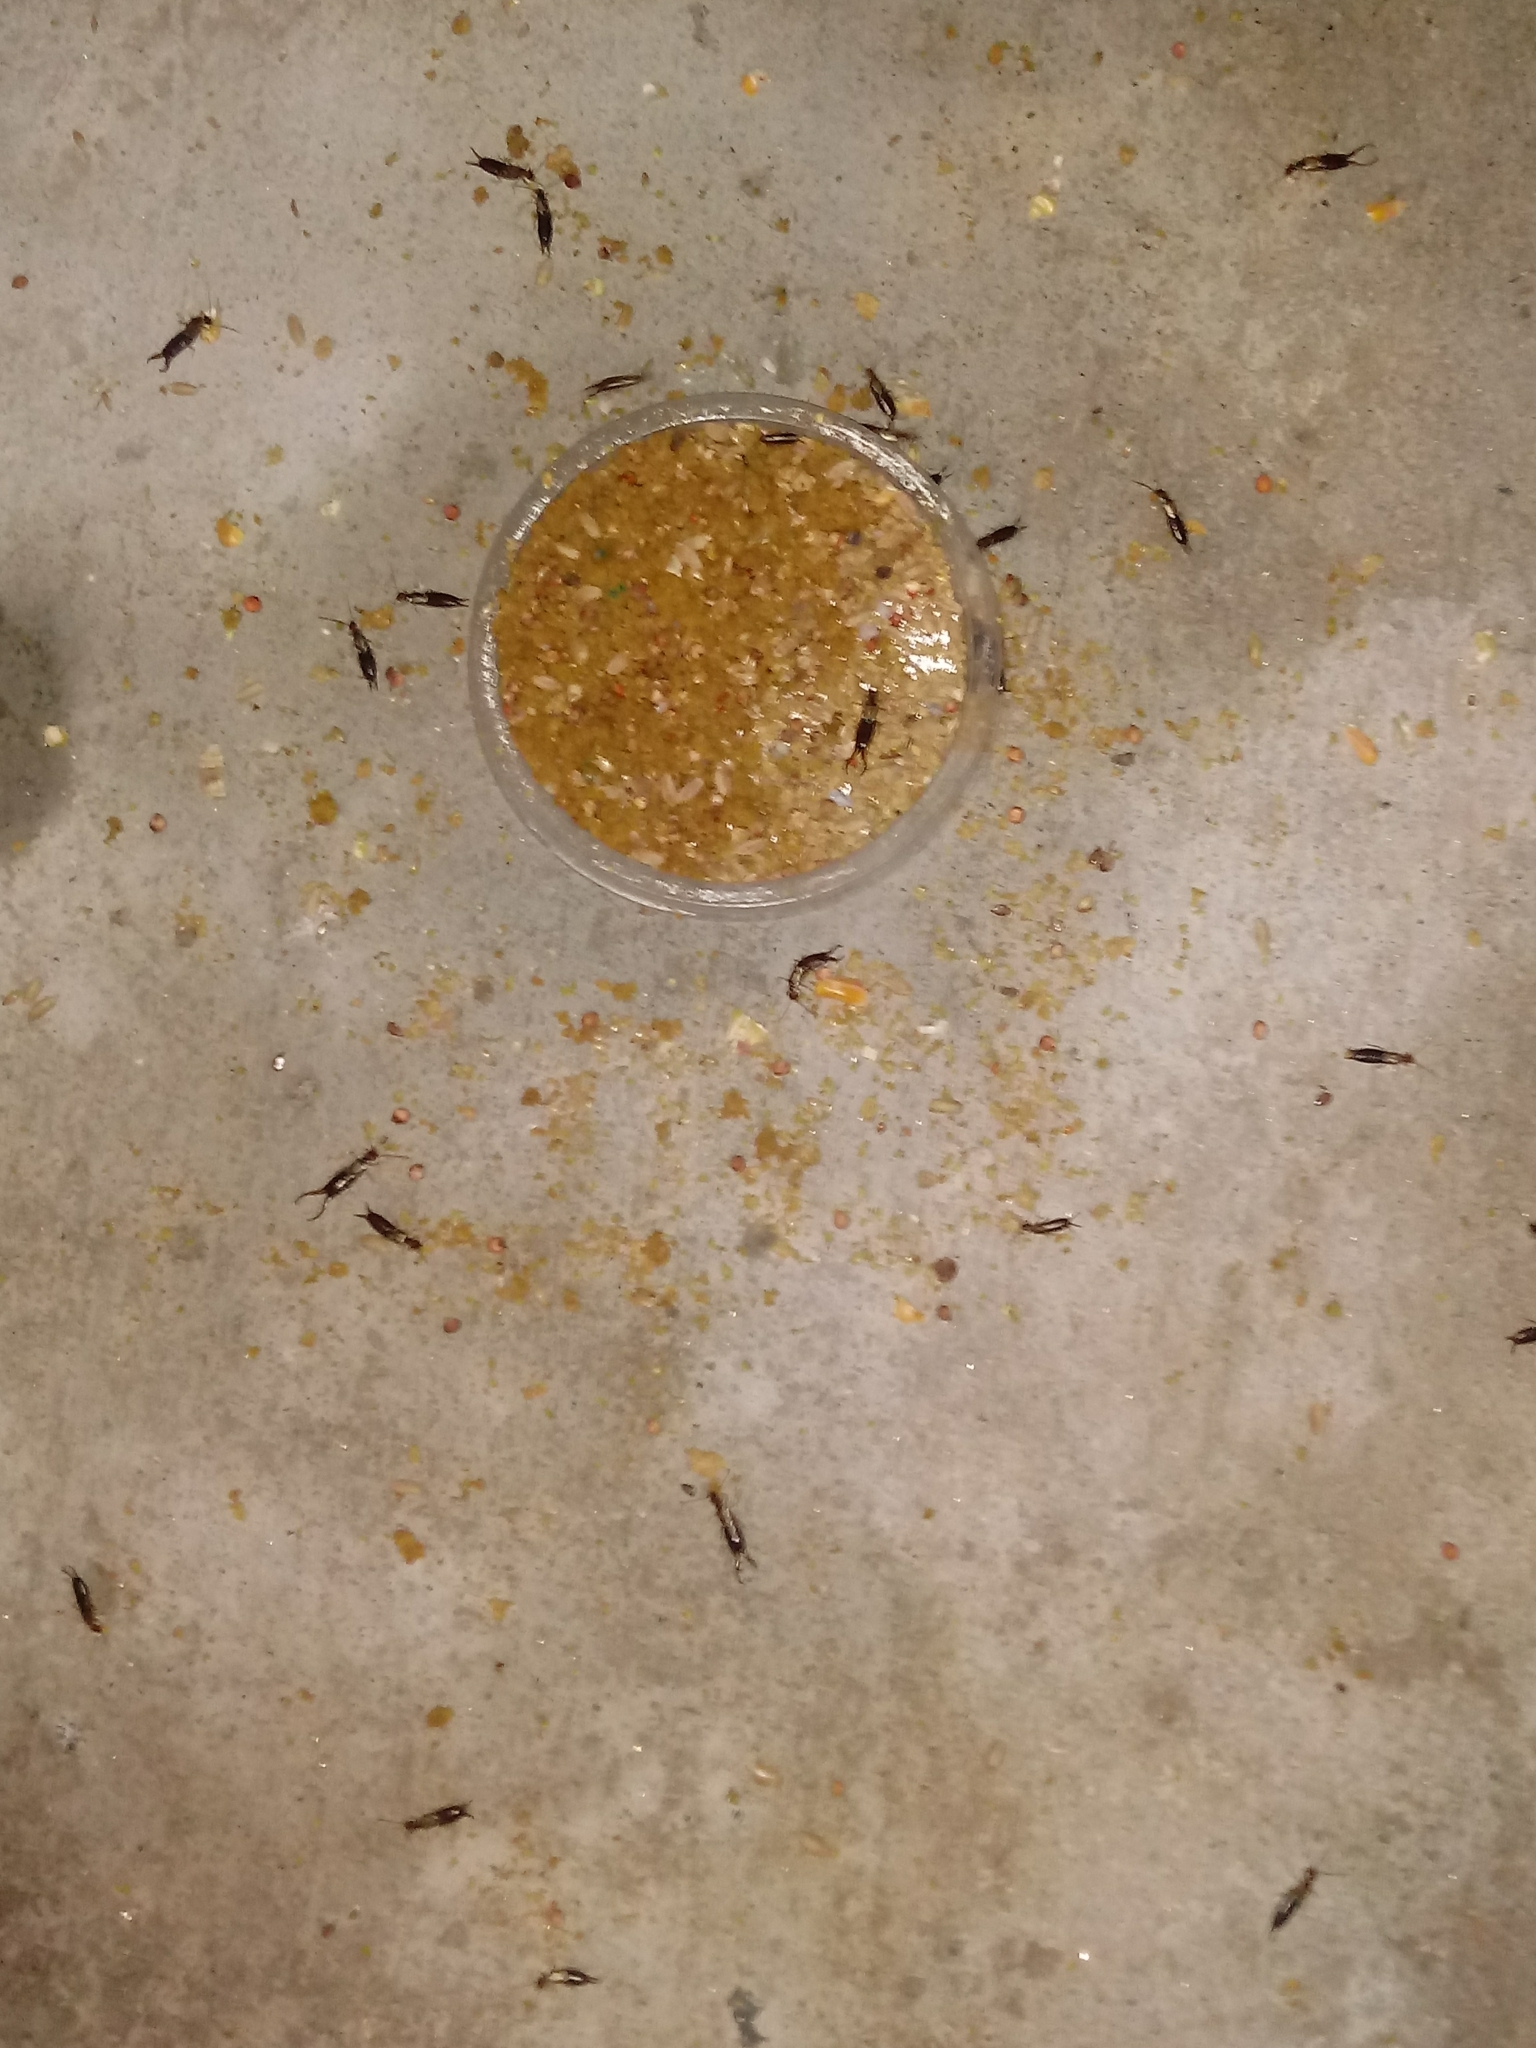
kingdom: Animalia
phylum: Arthropoda
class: Insecta
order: Dermaptera
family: Forficulidae
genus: Forficula
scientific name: Forficula
